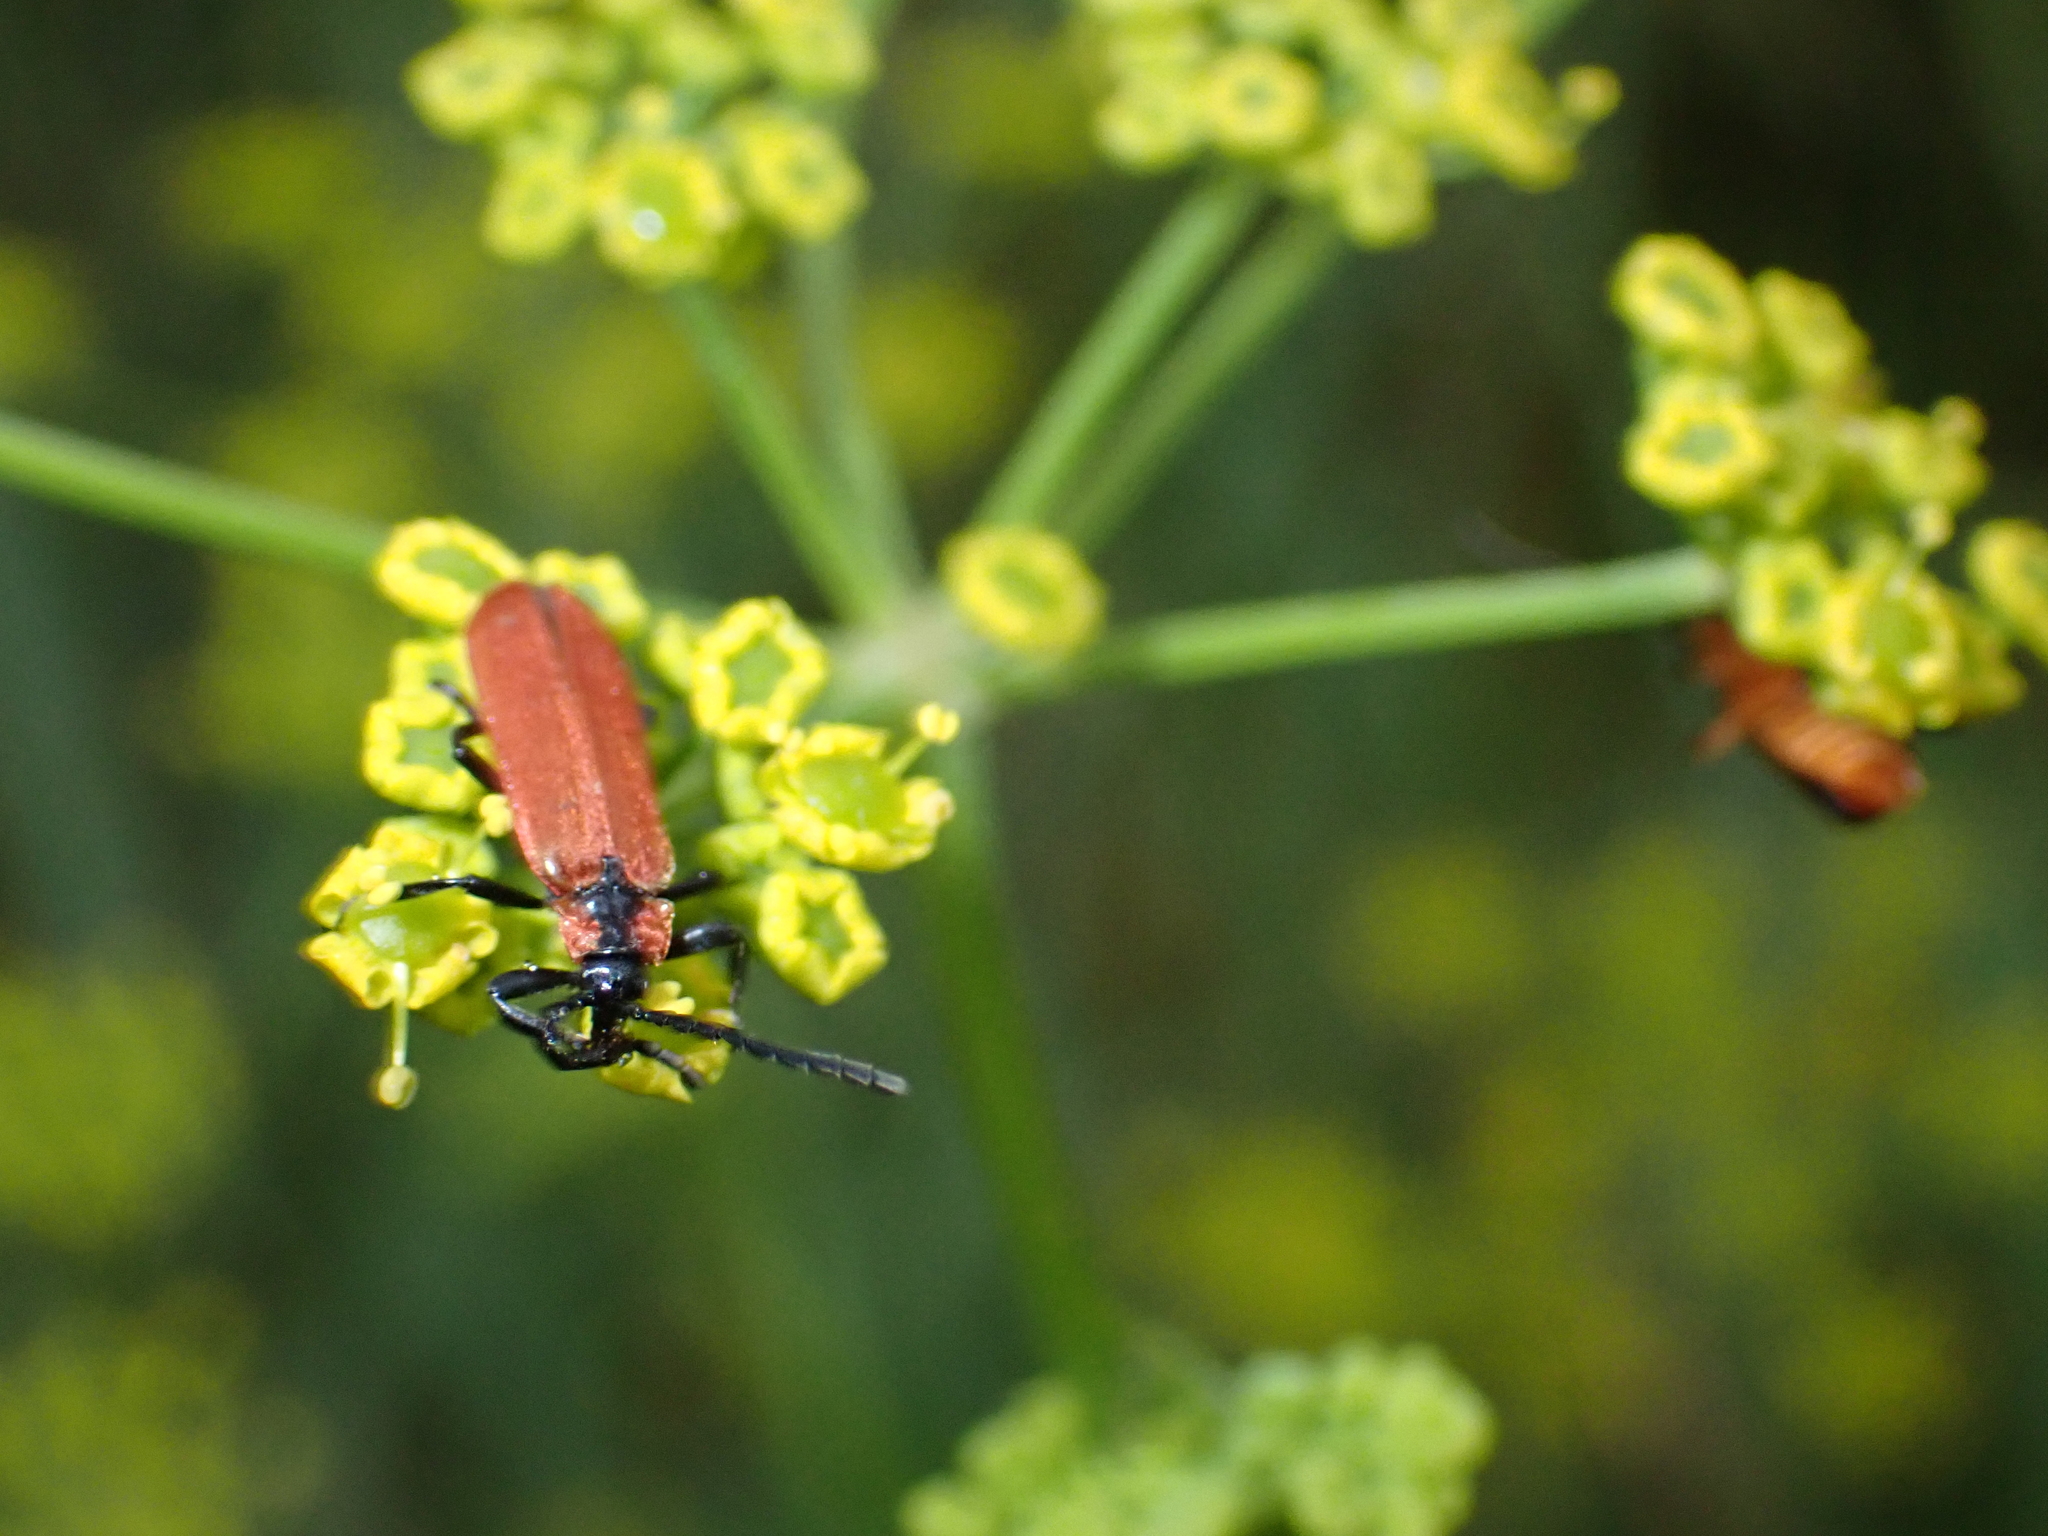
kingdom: Animalia
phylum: Arthropoda
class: Insecta
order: Coleoptera
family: Lycidae
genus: Lygistopterus
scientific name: Lygistopterus sanguineus
